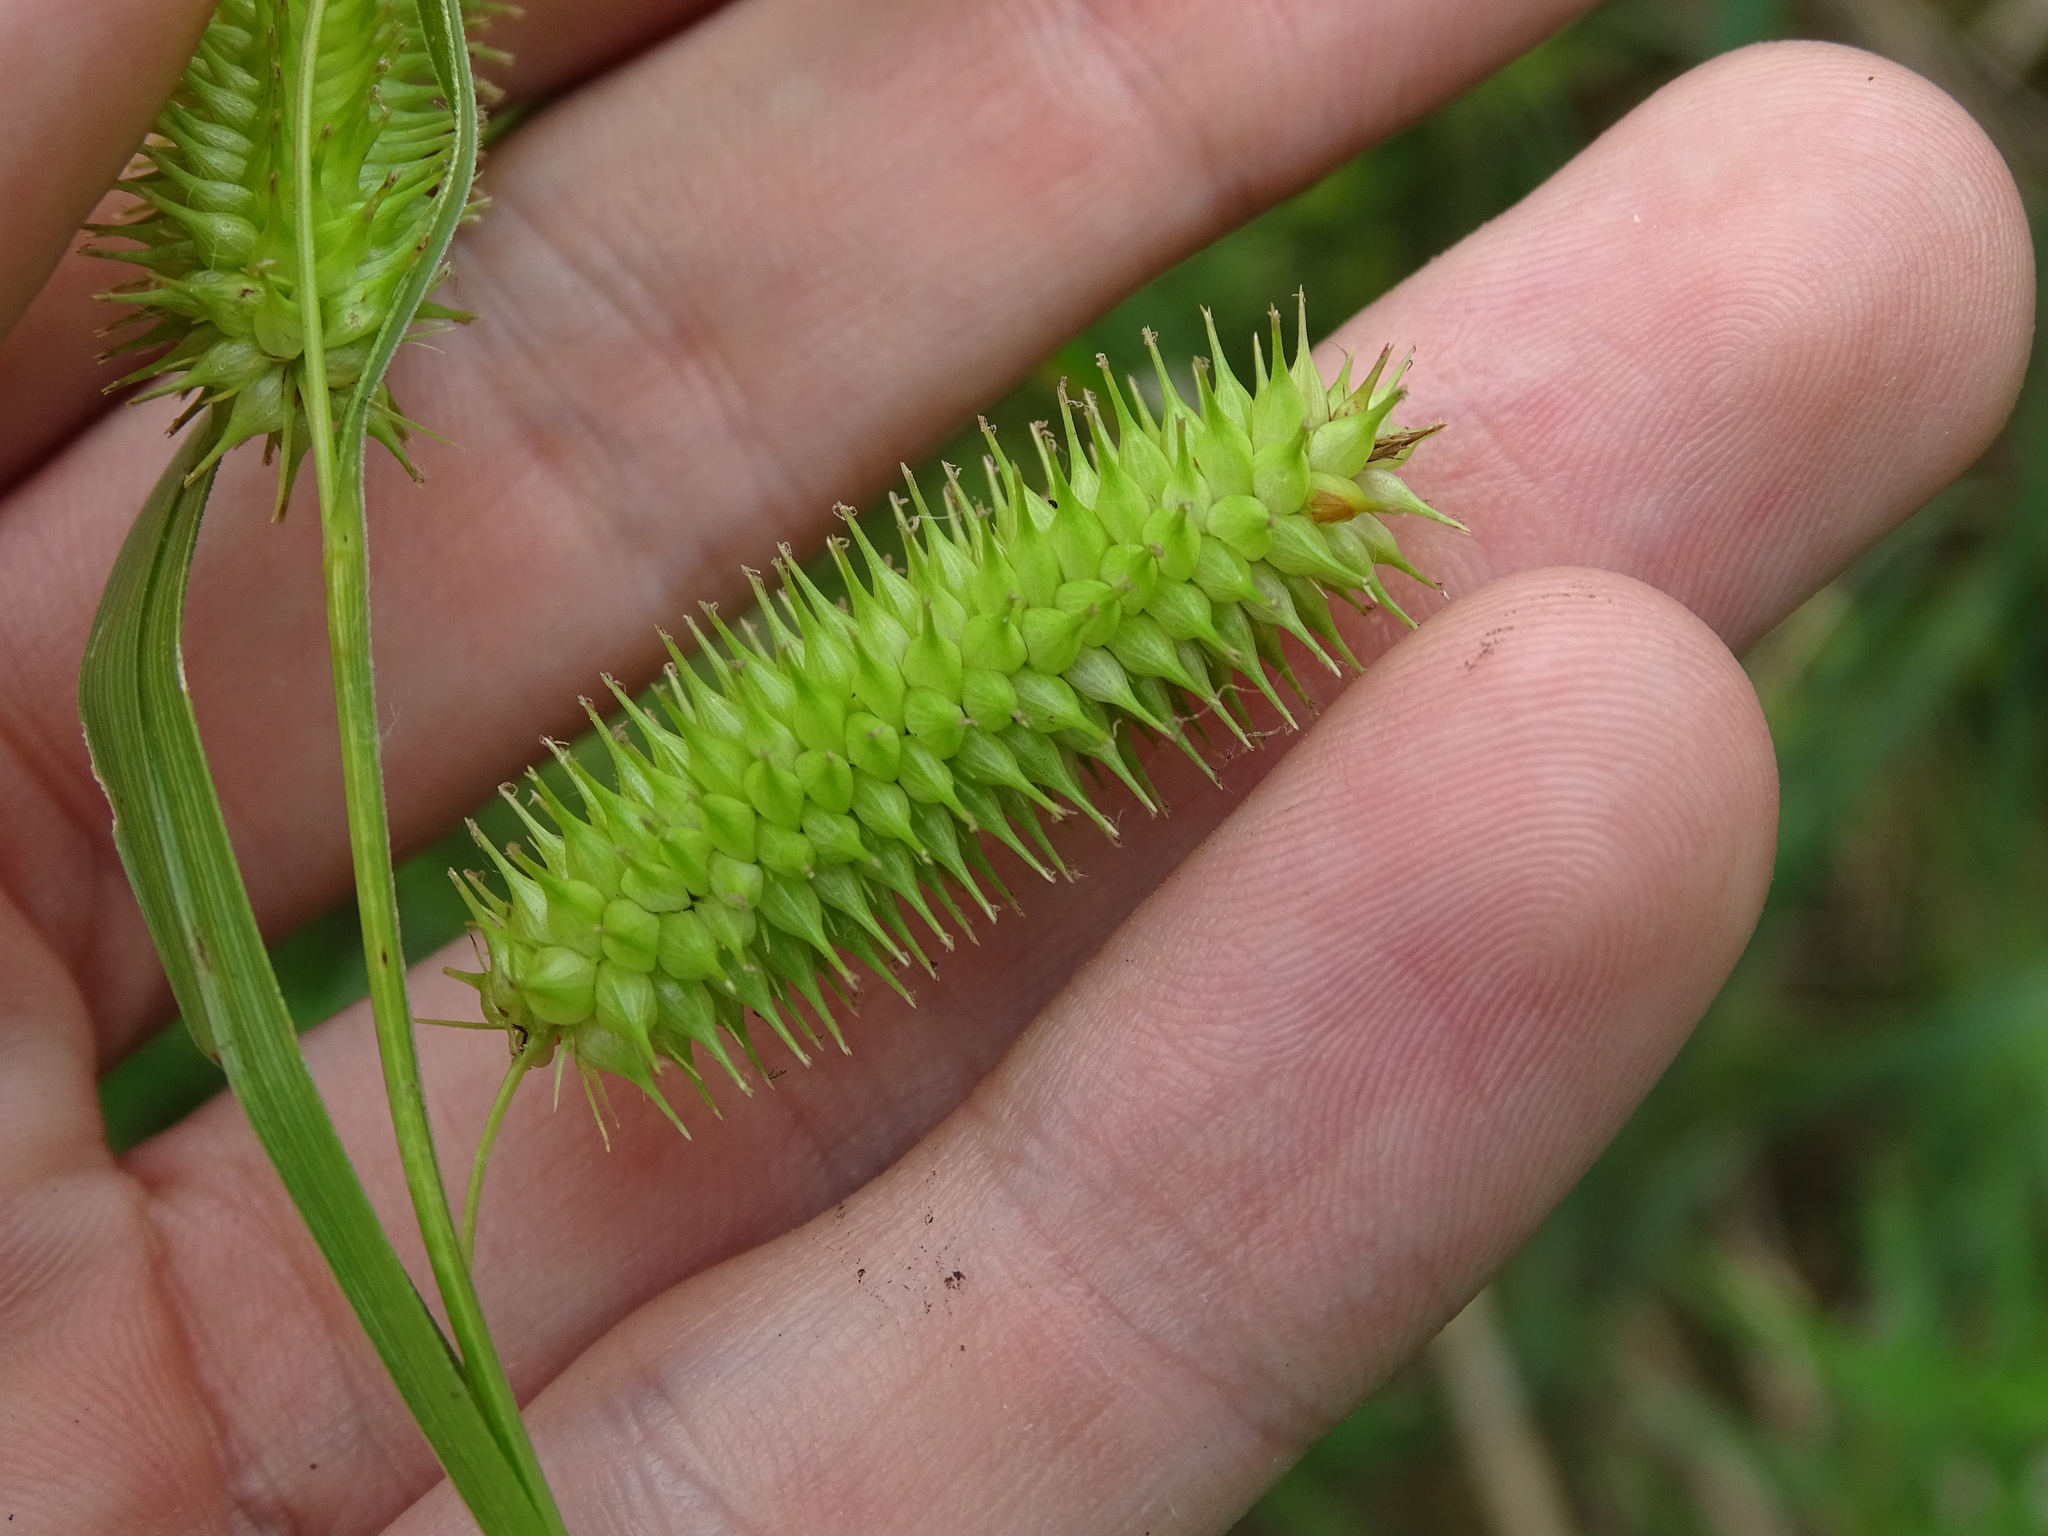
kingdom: Plantae
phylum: Tracheophyta
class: Liliopsida
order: Poales
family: Cyperaceae
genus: Carex
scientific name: Carex hystericina
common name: Bottlebrush sedge
